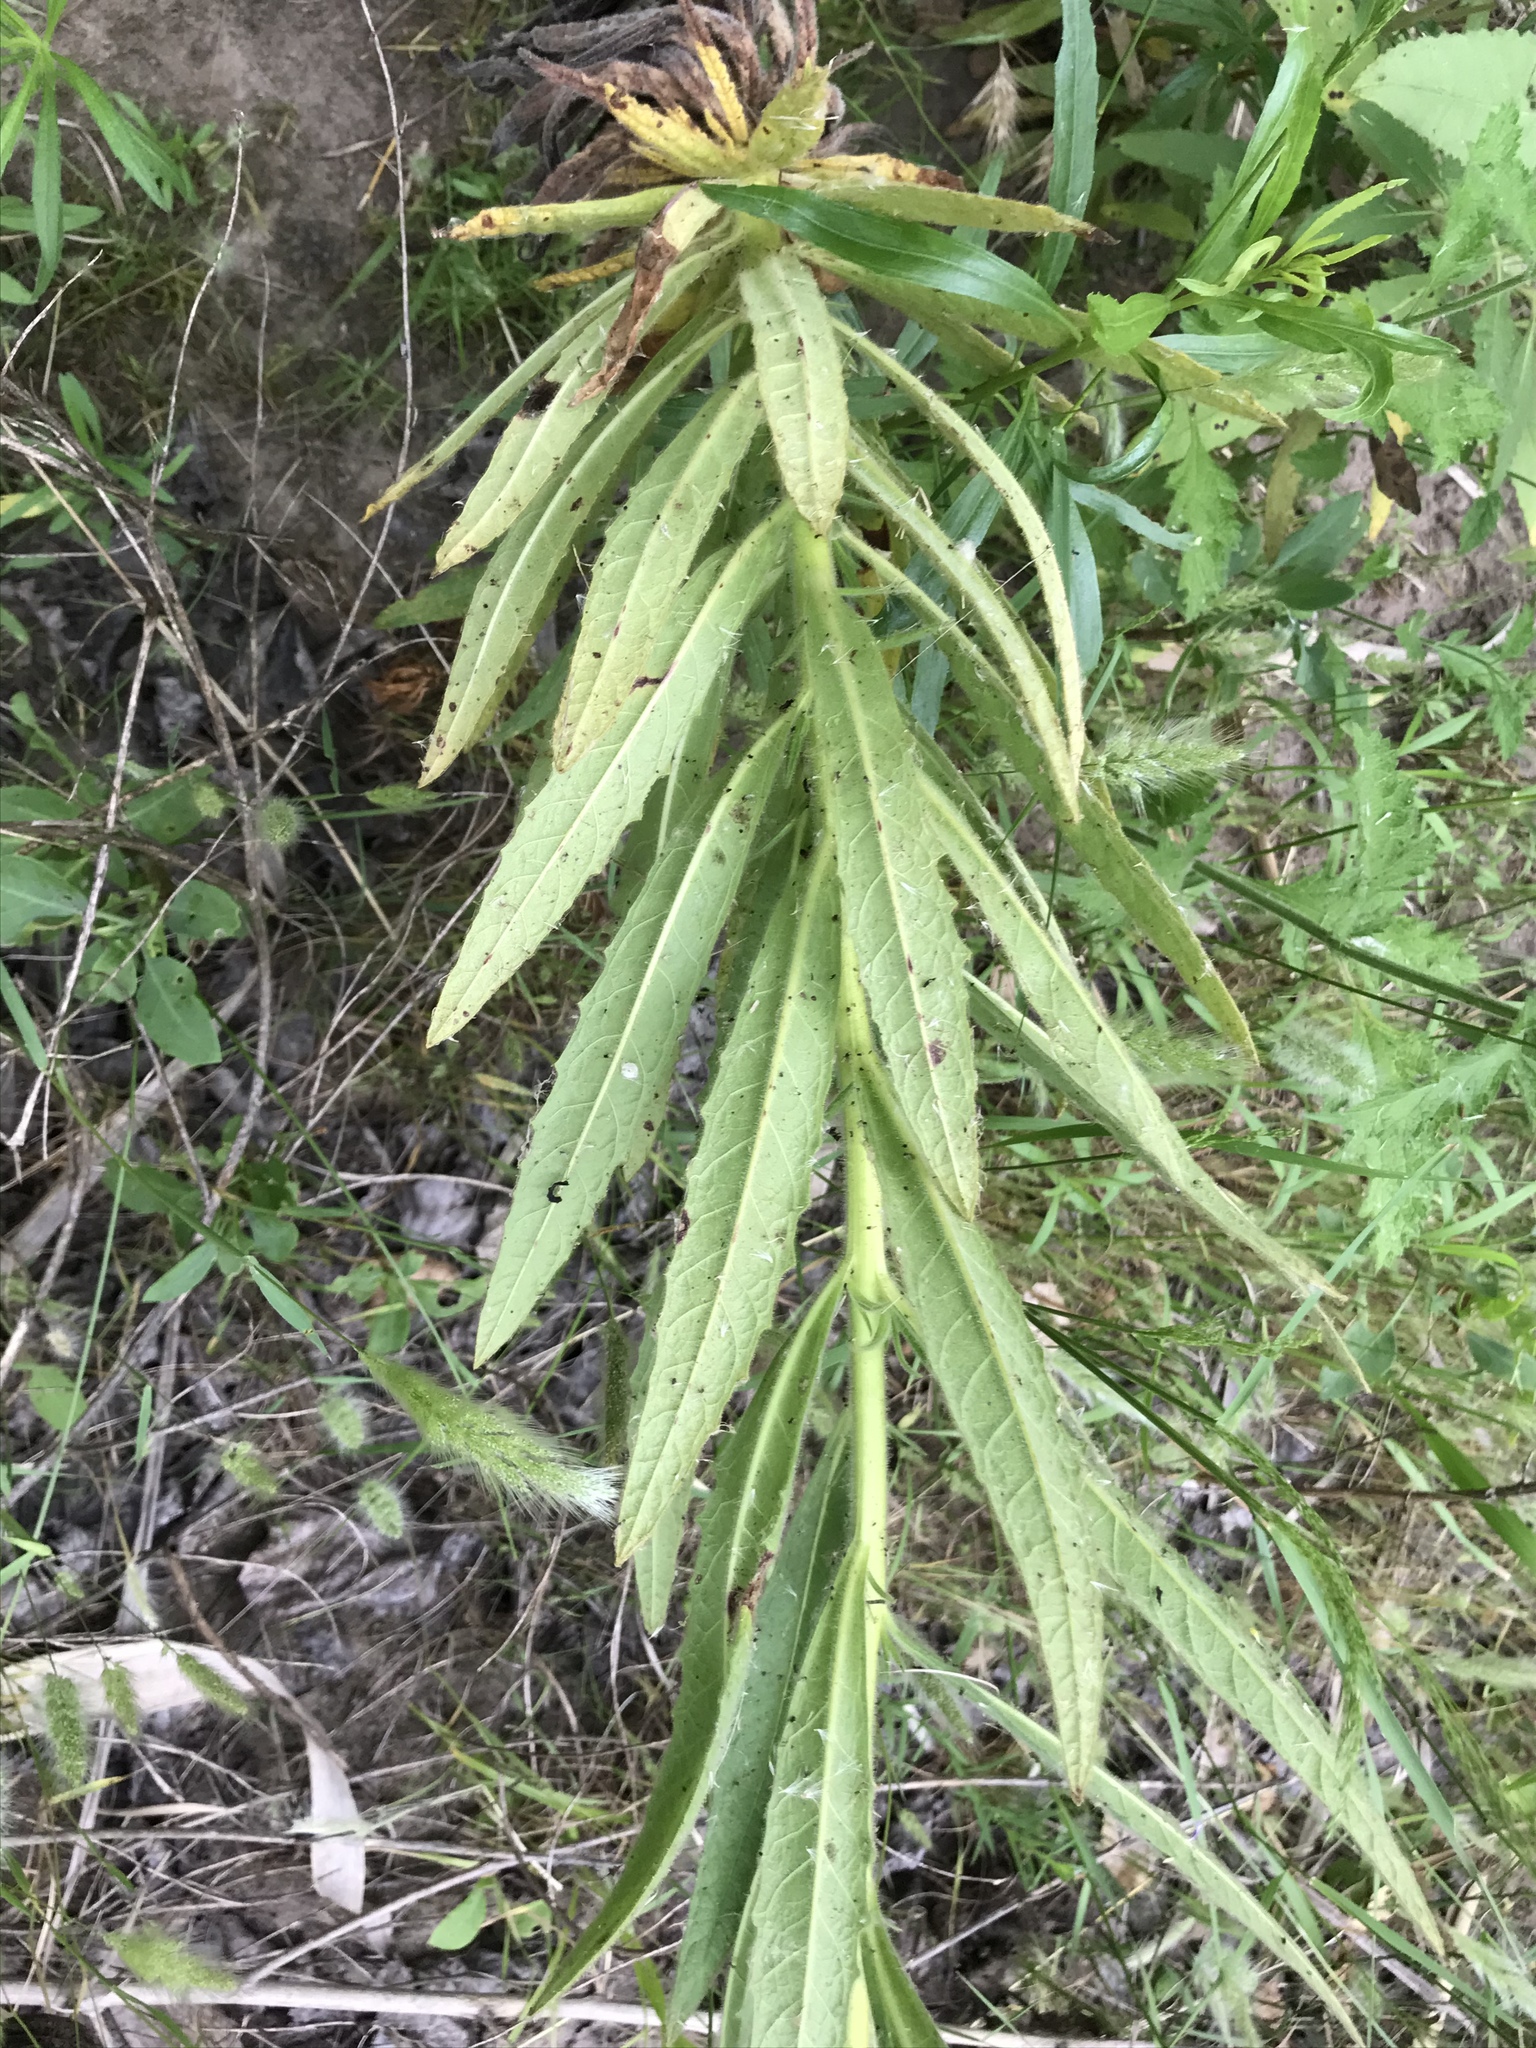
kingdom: Plantae
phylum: Tracheophyta
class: Magnoliopsida
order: Boraginales
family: Namaceae
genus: Turricula
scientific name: Turricula parryi
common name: Poodle-dog-bush
